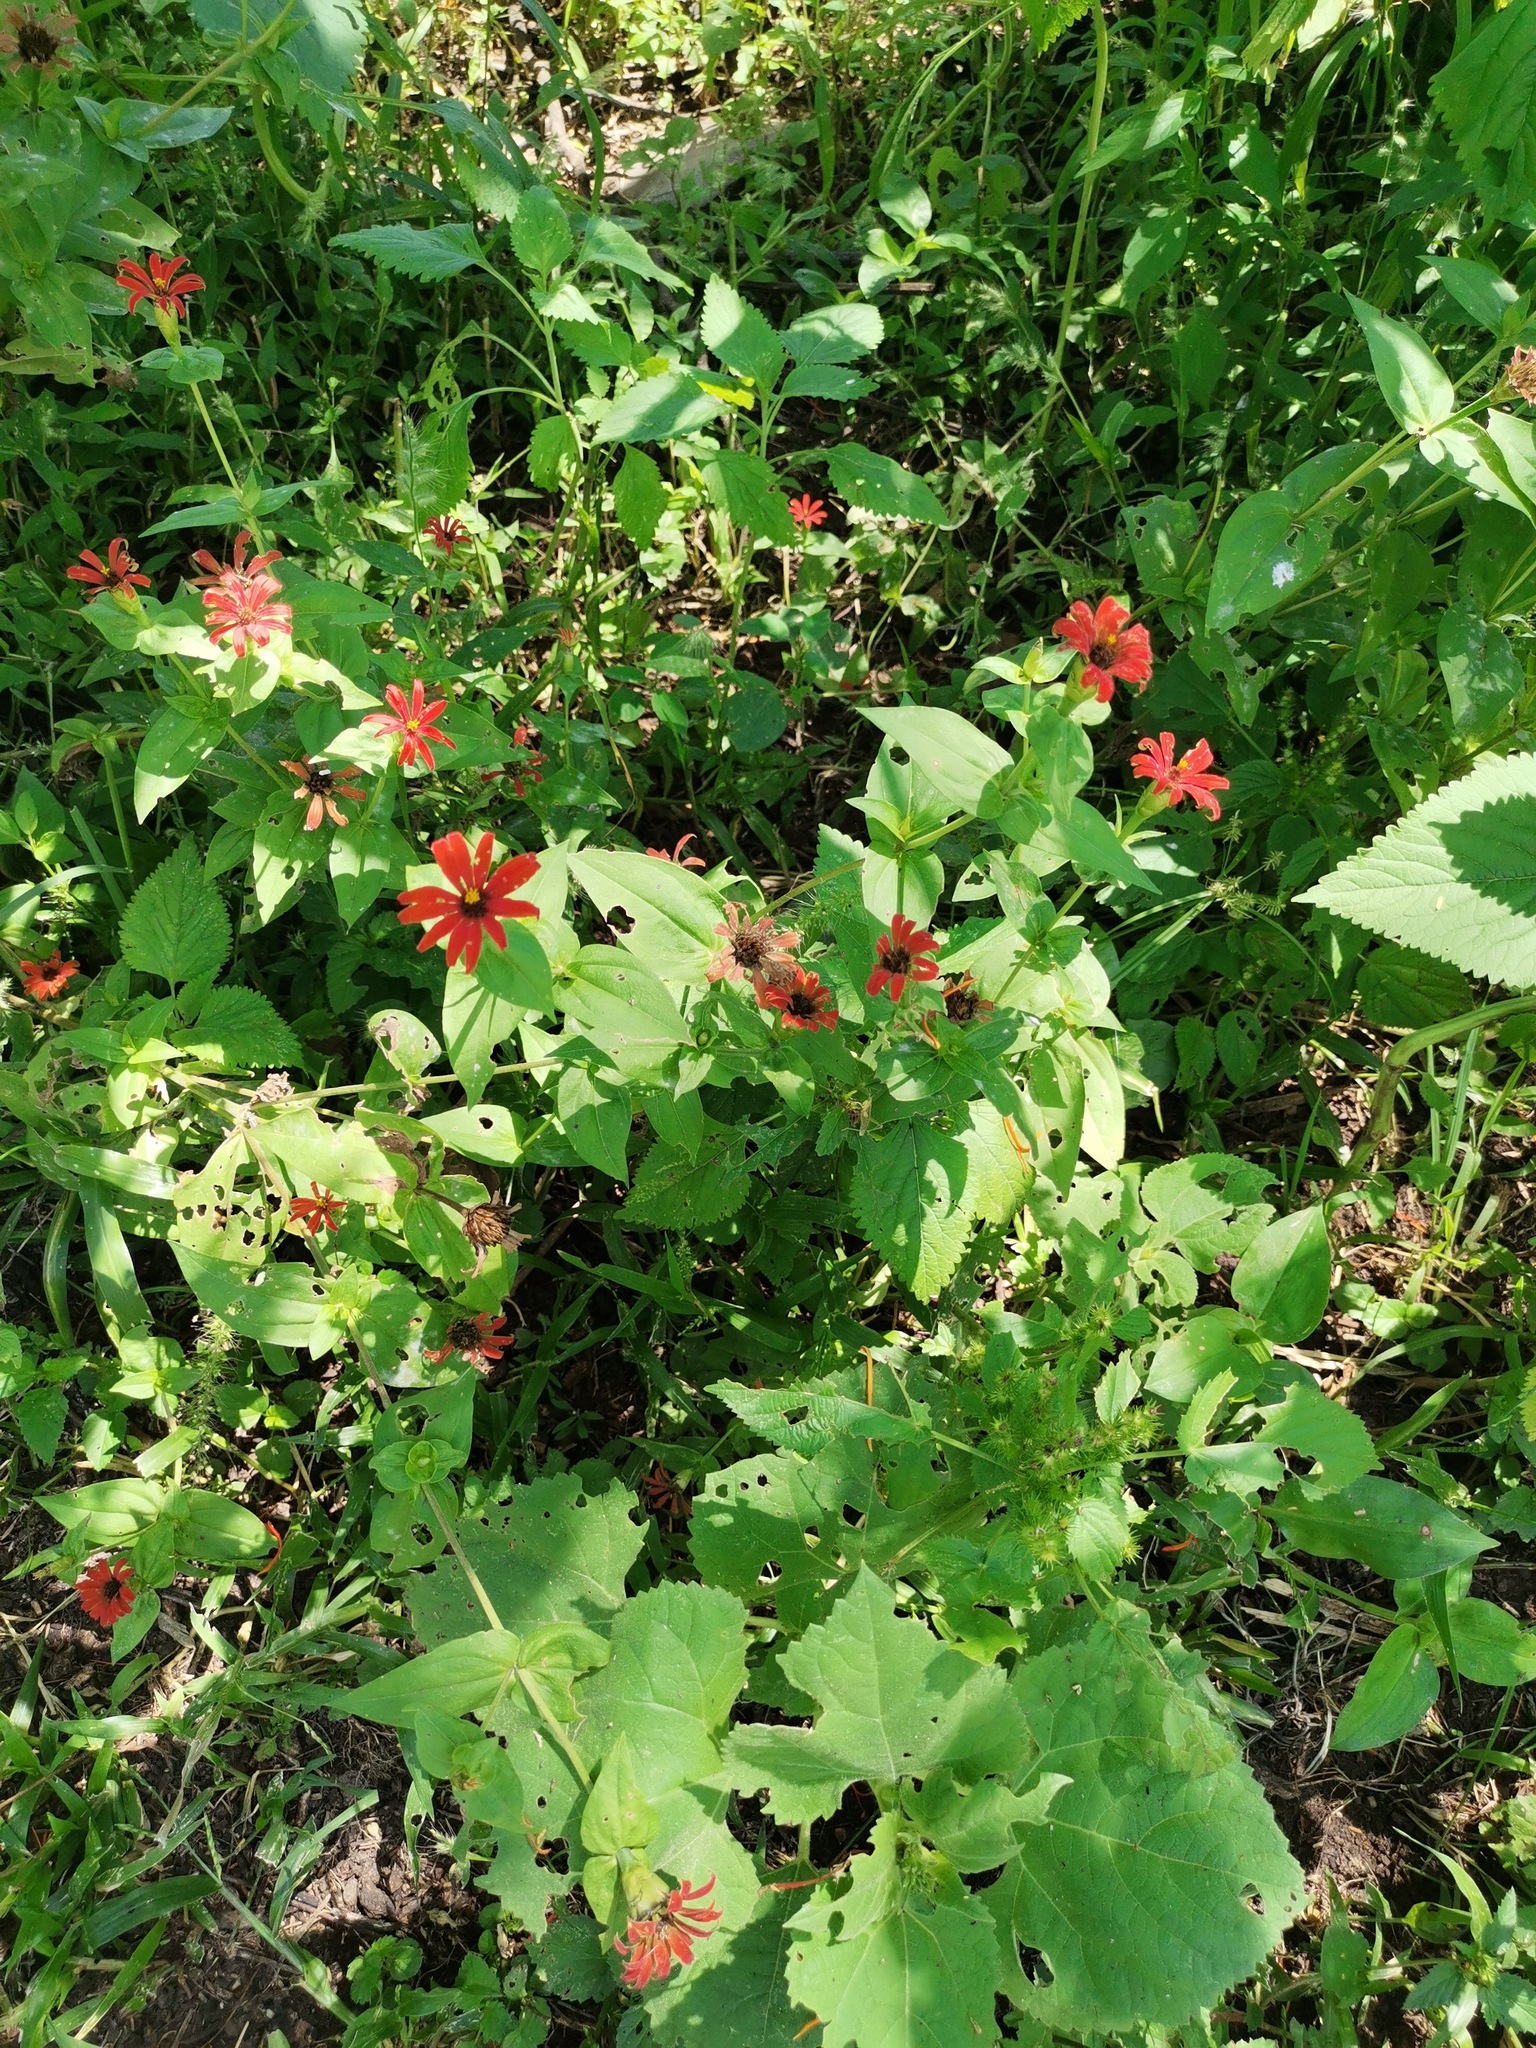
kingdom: Plantae
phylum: Tracheophyta
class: Magnoliopsida
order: Asterales
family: Asteraceae
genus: Zinnia
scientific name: Zinnia peruviana
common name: Peruvian zinnia
